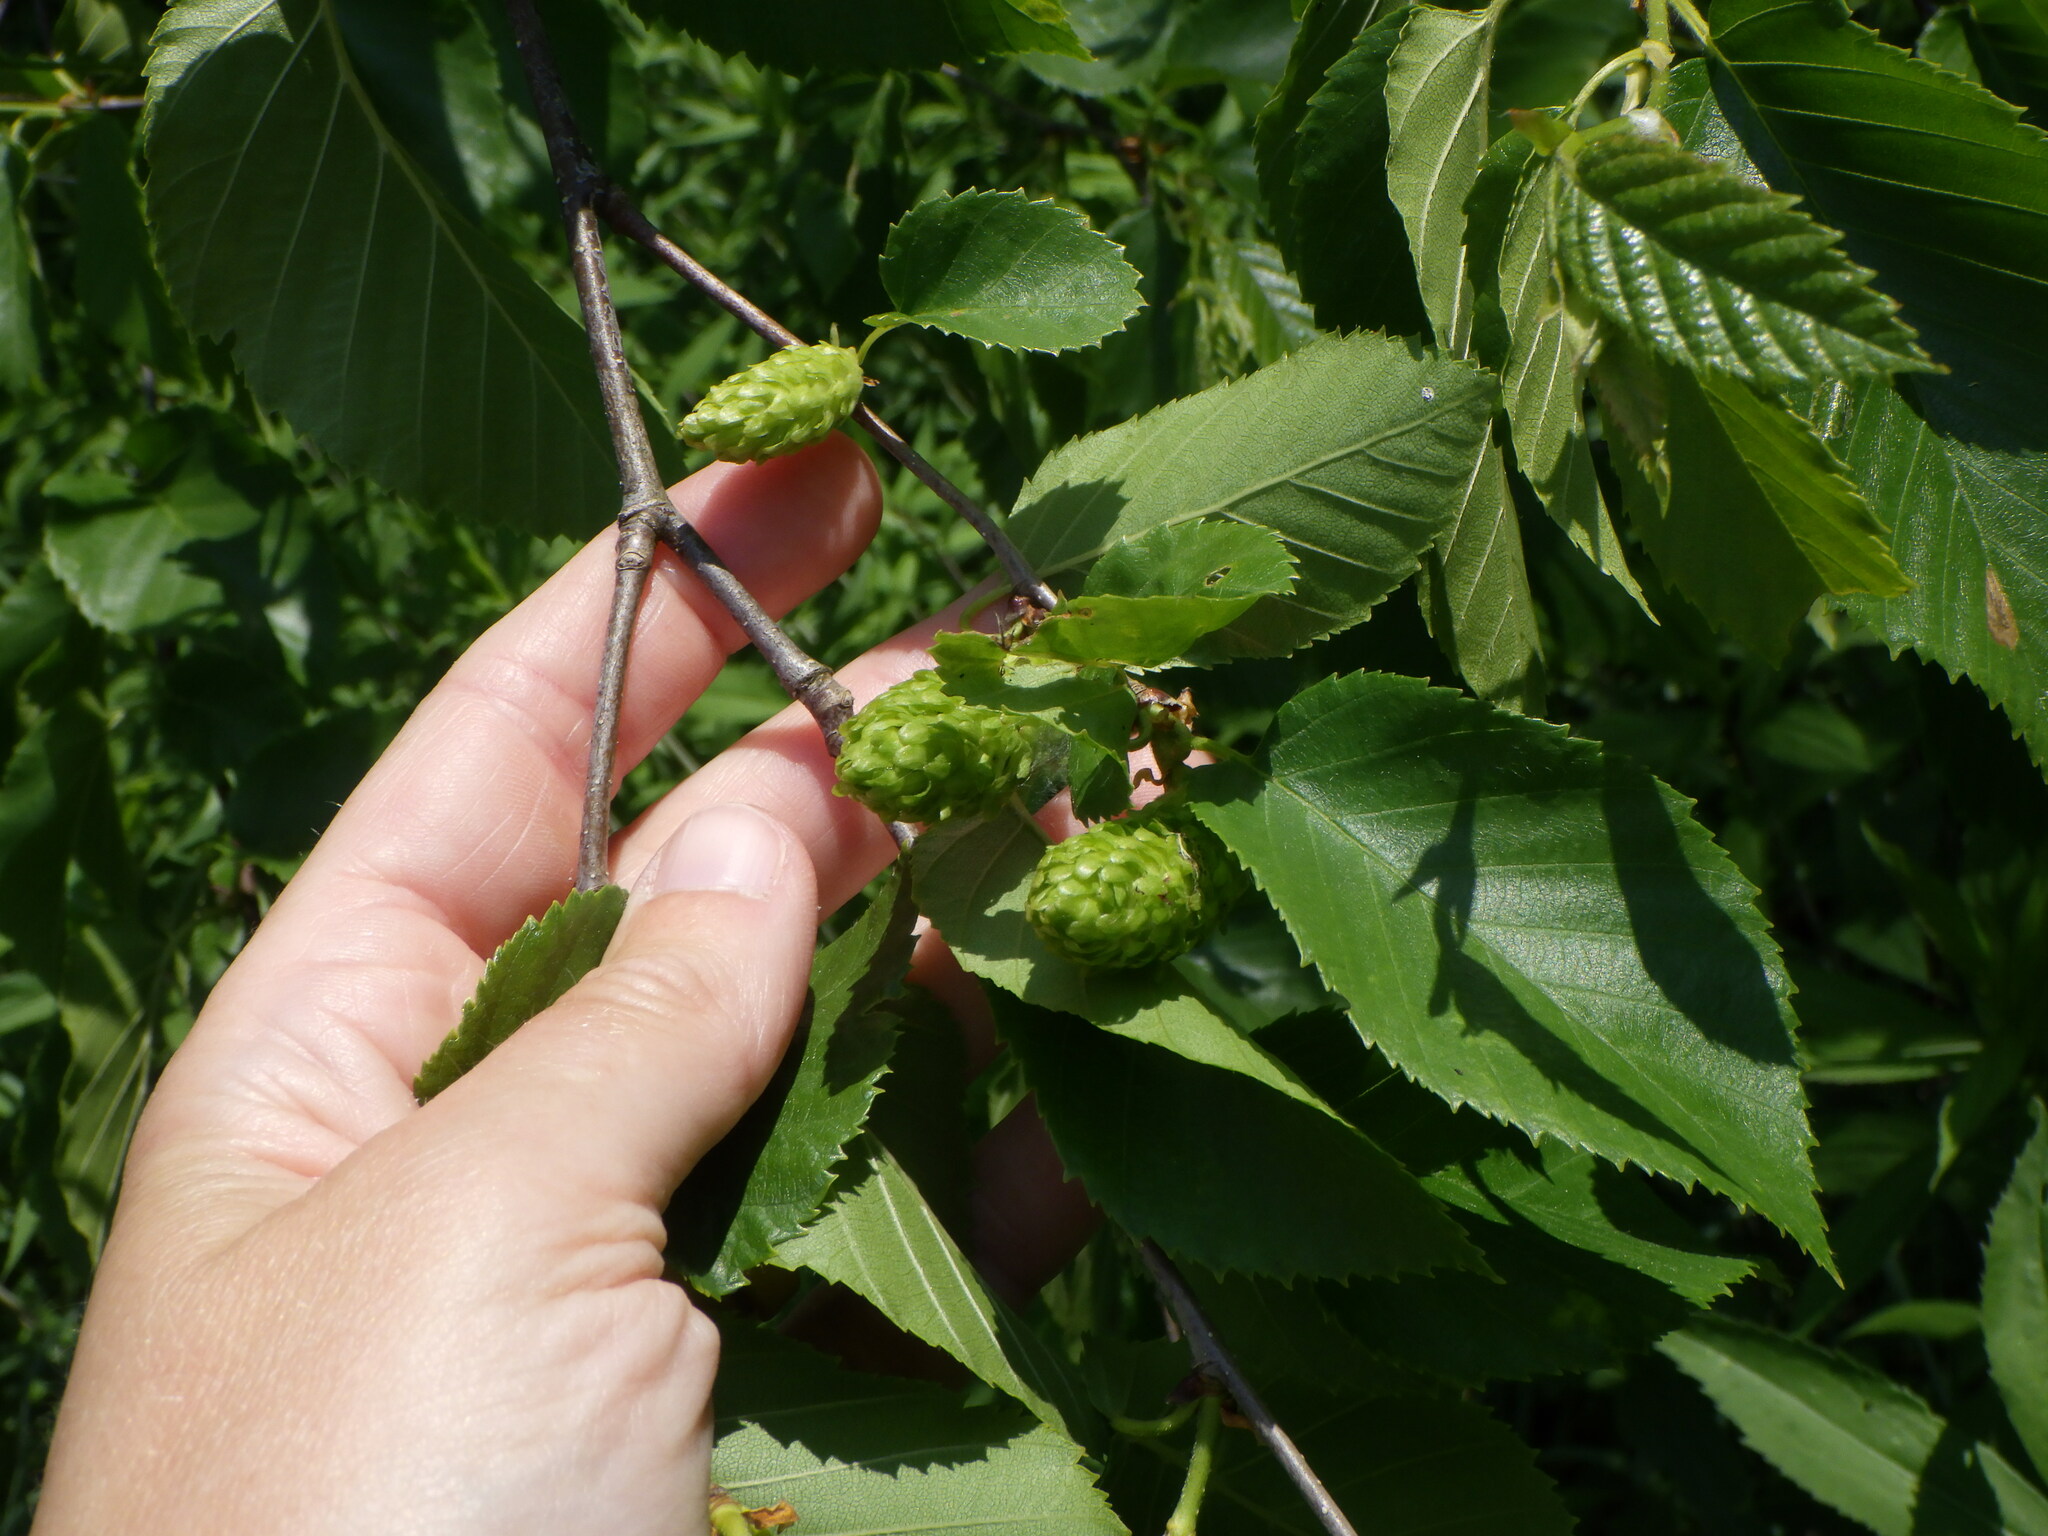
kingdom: Plantae
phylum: Tracheophyta
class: Magnoliopsida
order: Fagales
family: Betulaceae
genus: Betula
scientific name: Betula alleghaniensis
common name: Yellow birch
